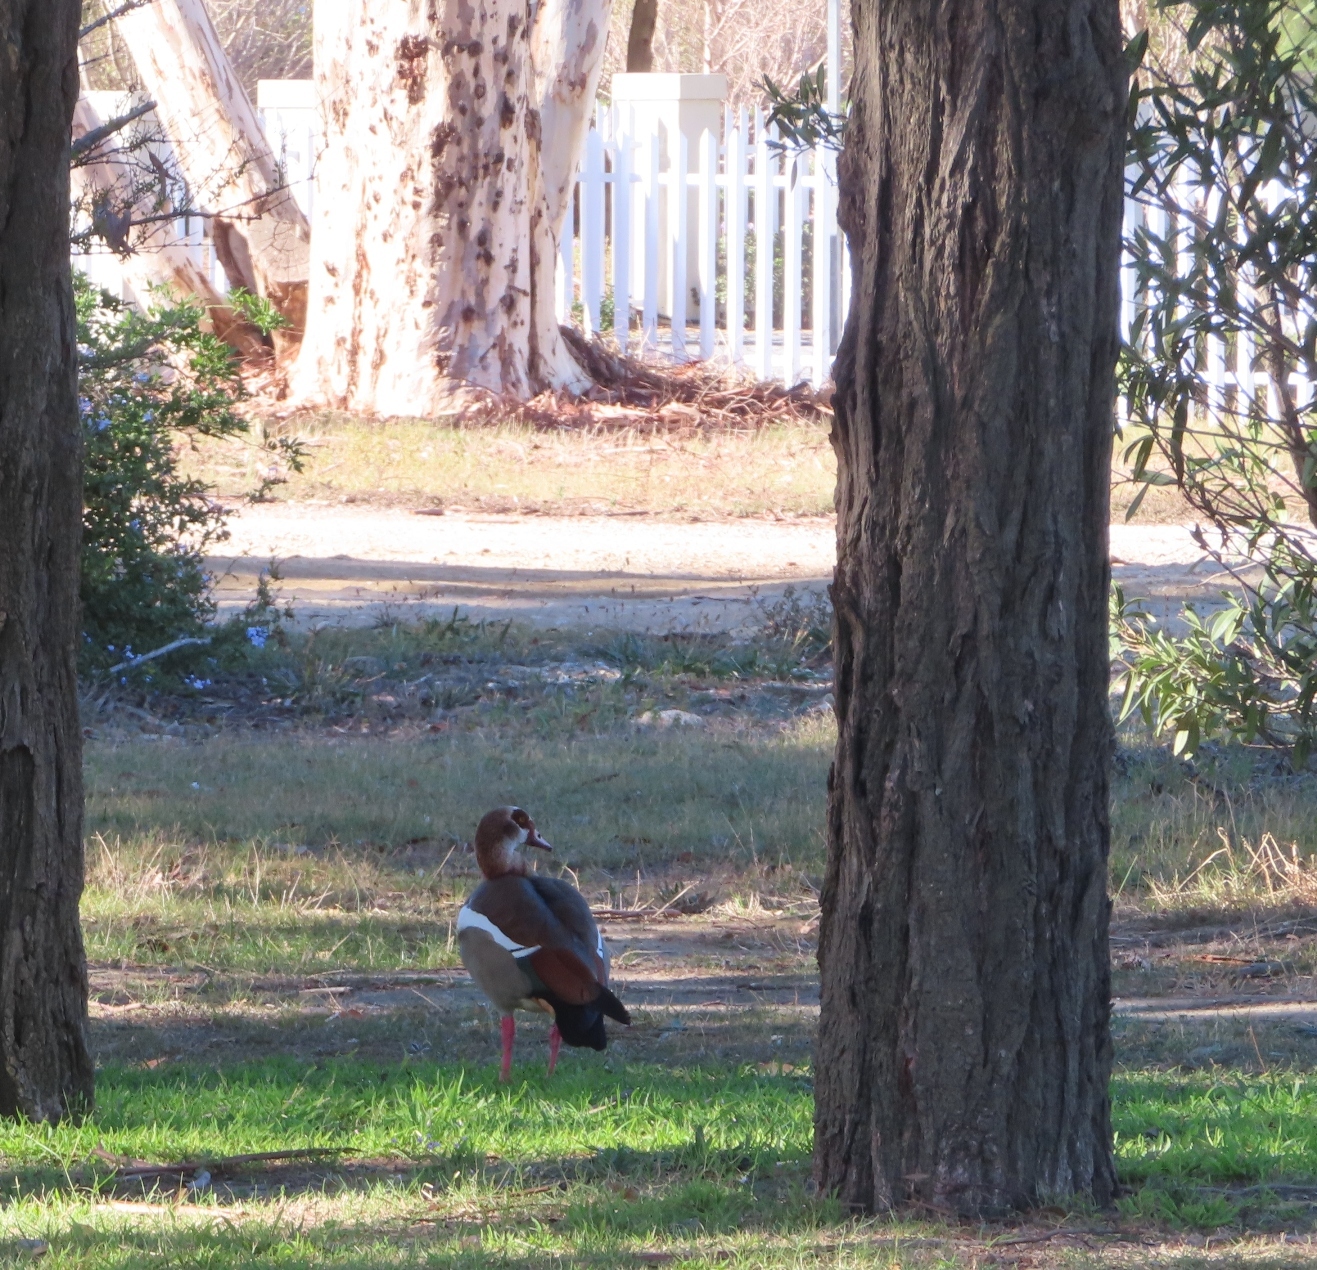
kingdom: Animalia
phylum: Chordata
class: Aves
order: Anseriformes
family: Anatidae
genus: Alopochen
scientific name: Alopochen aegyptiaca
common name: Egyptian goose
